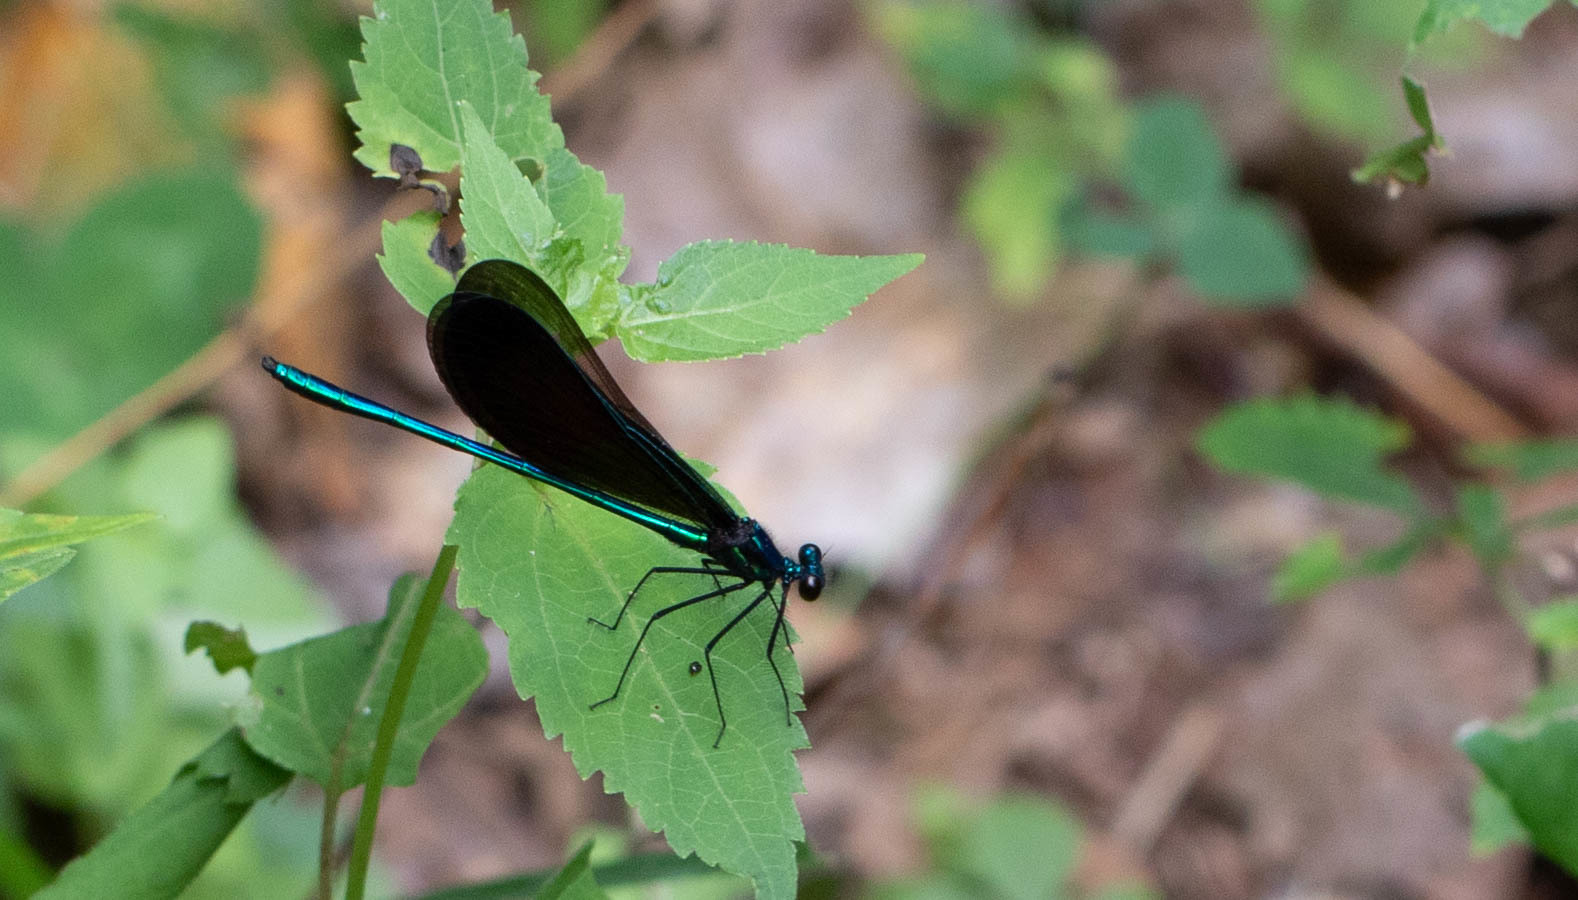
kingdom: Animalia
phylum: Arthropoda
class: Insecta
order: Odonata
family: Calopterygidae
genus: Calopteryx
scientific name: Calopteryx maculata
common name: Ebony jewelwing
